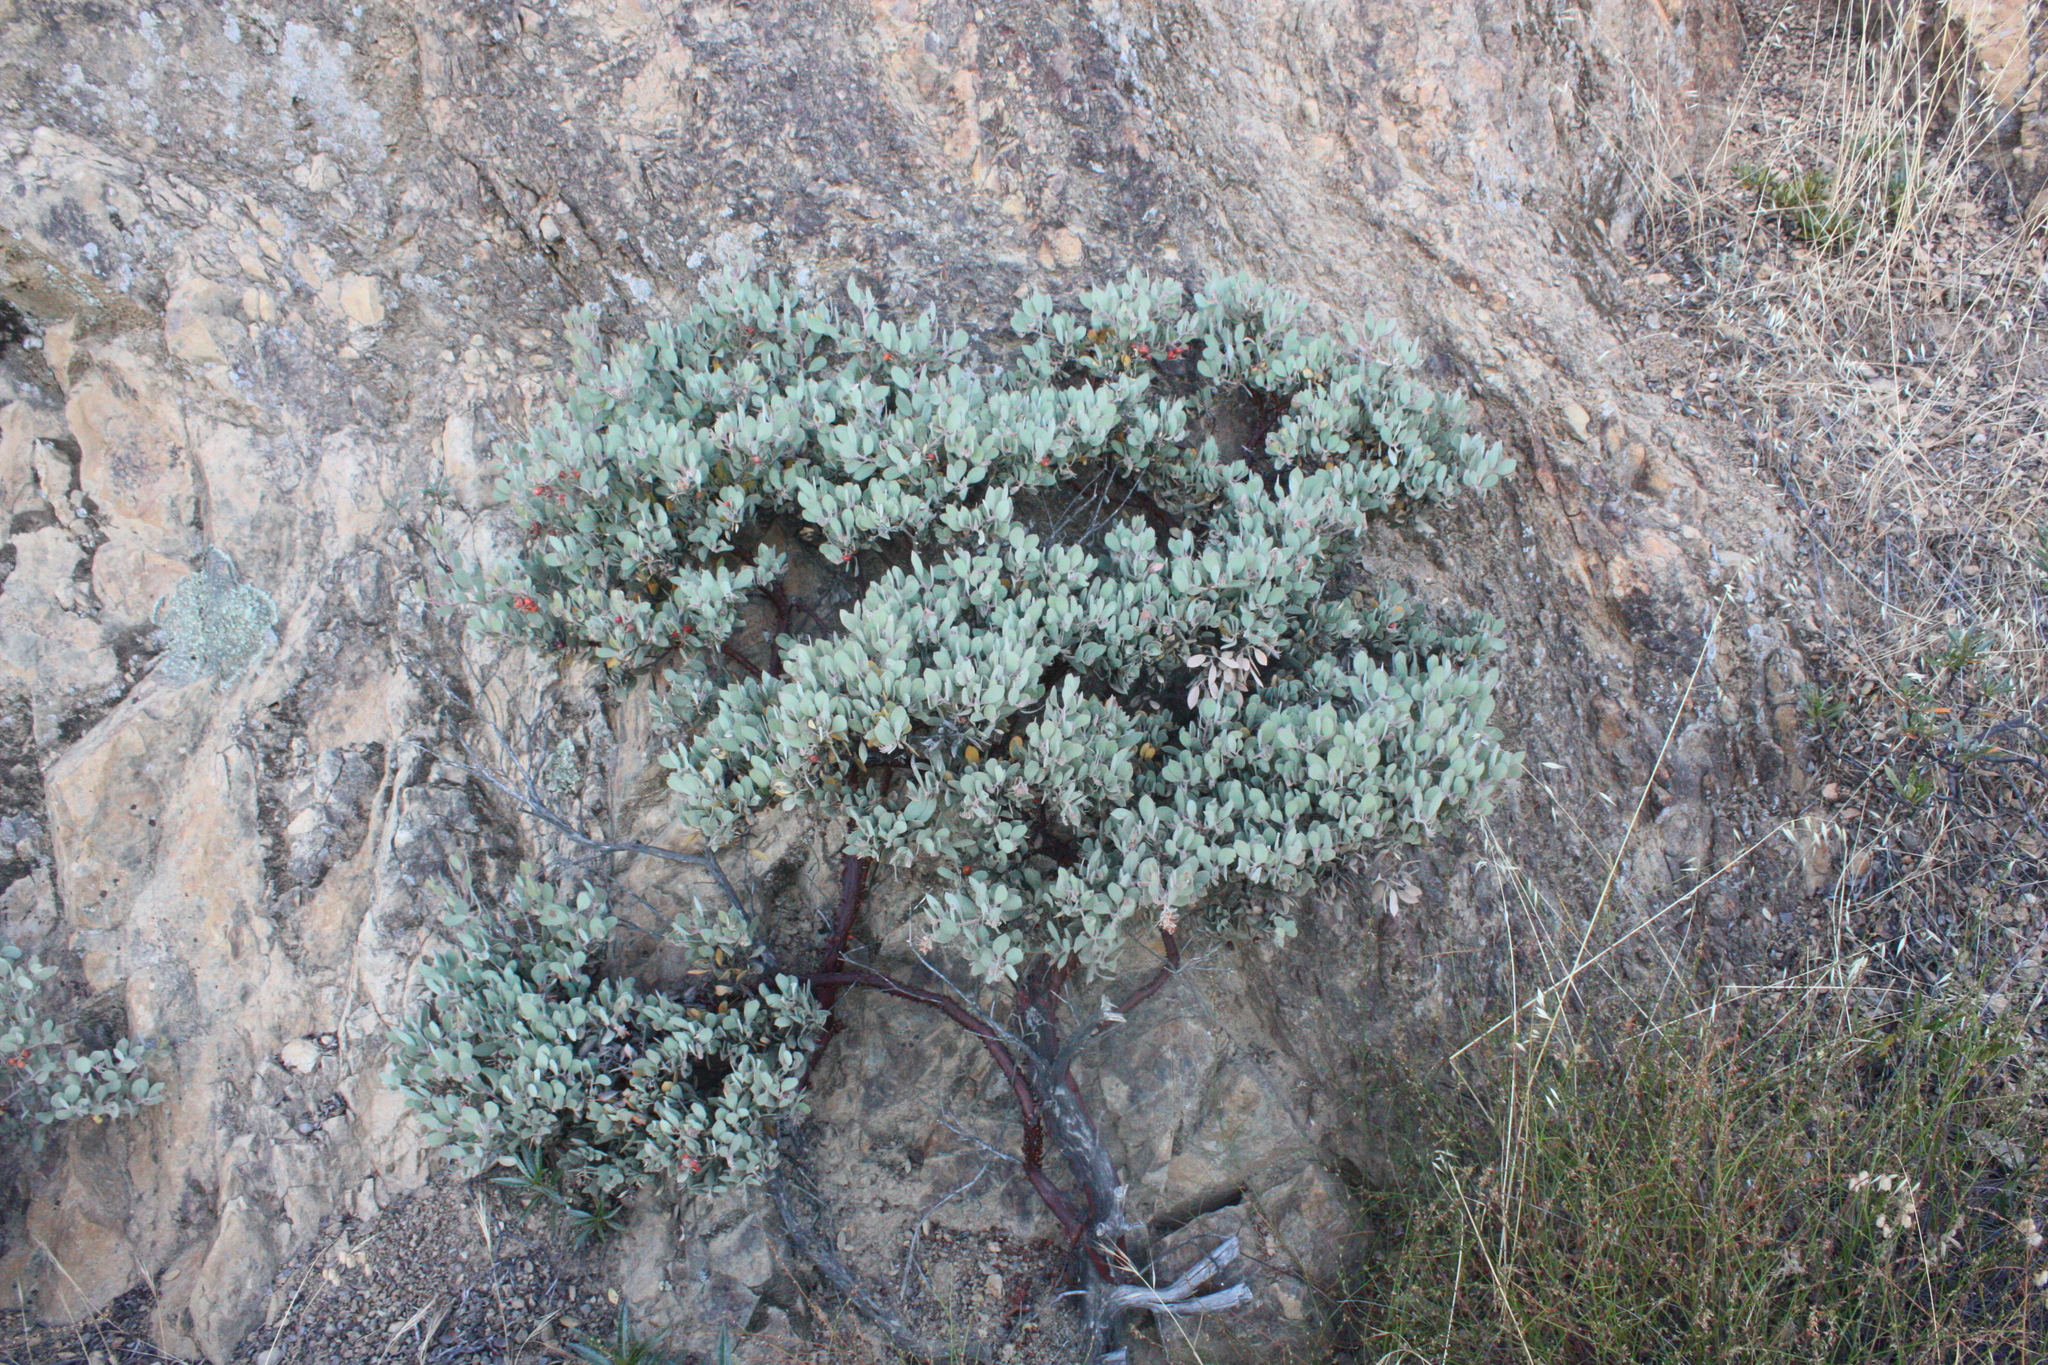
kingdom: Plantae
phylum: Tracheophyta
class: Magnoliopsida
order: Ericales
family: Ericaceae
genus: Arctostaphylos
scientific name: Arctostaphylos canescens
